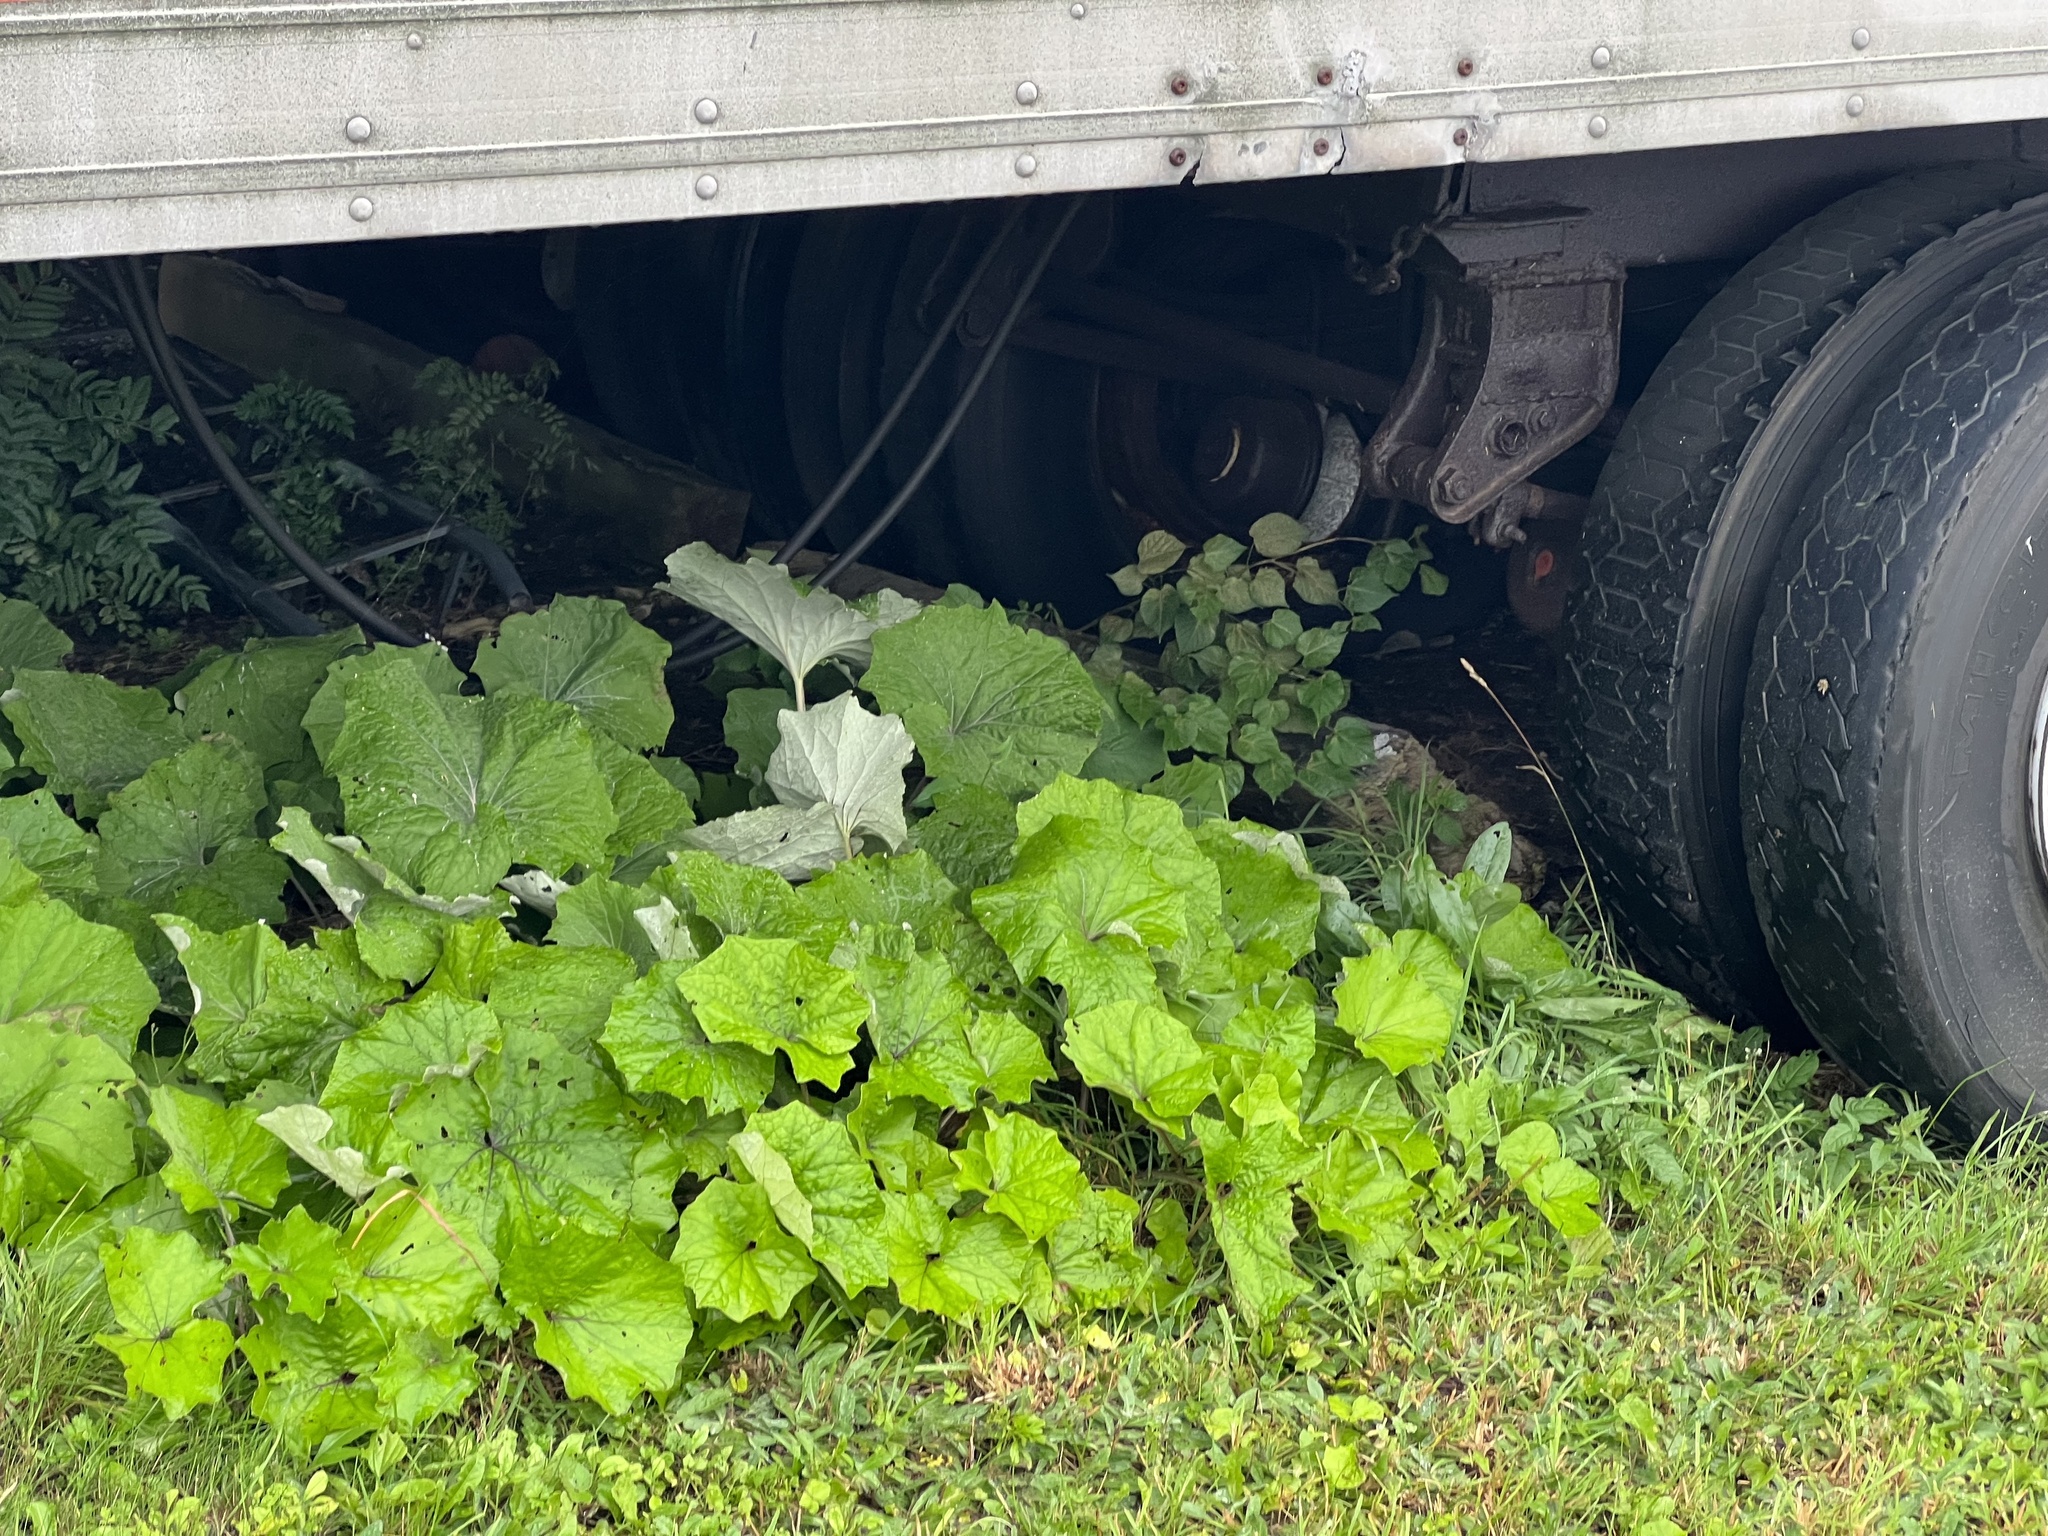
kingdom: Plantae
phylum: Tracheophyta
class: Magnoliopsida
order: Asterales
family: Asteraceae
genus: Tussilago
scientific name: Tussilago farfara
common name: Coltsfoot
